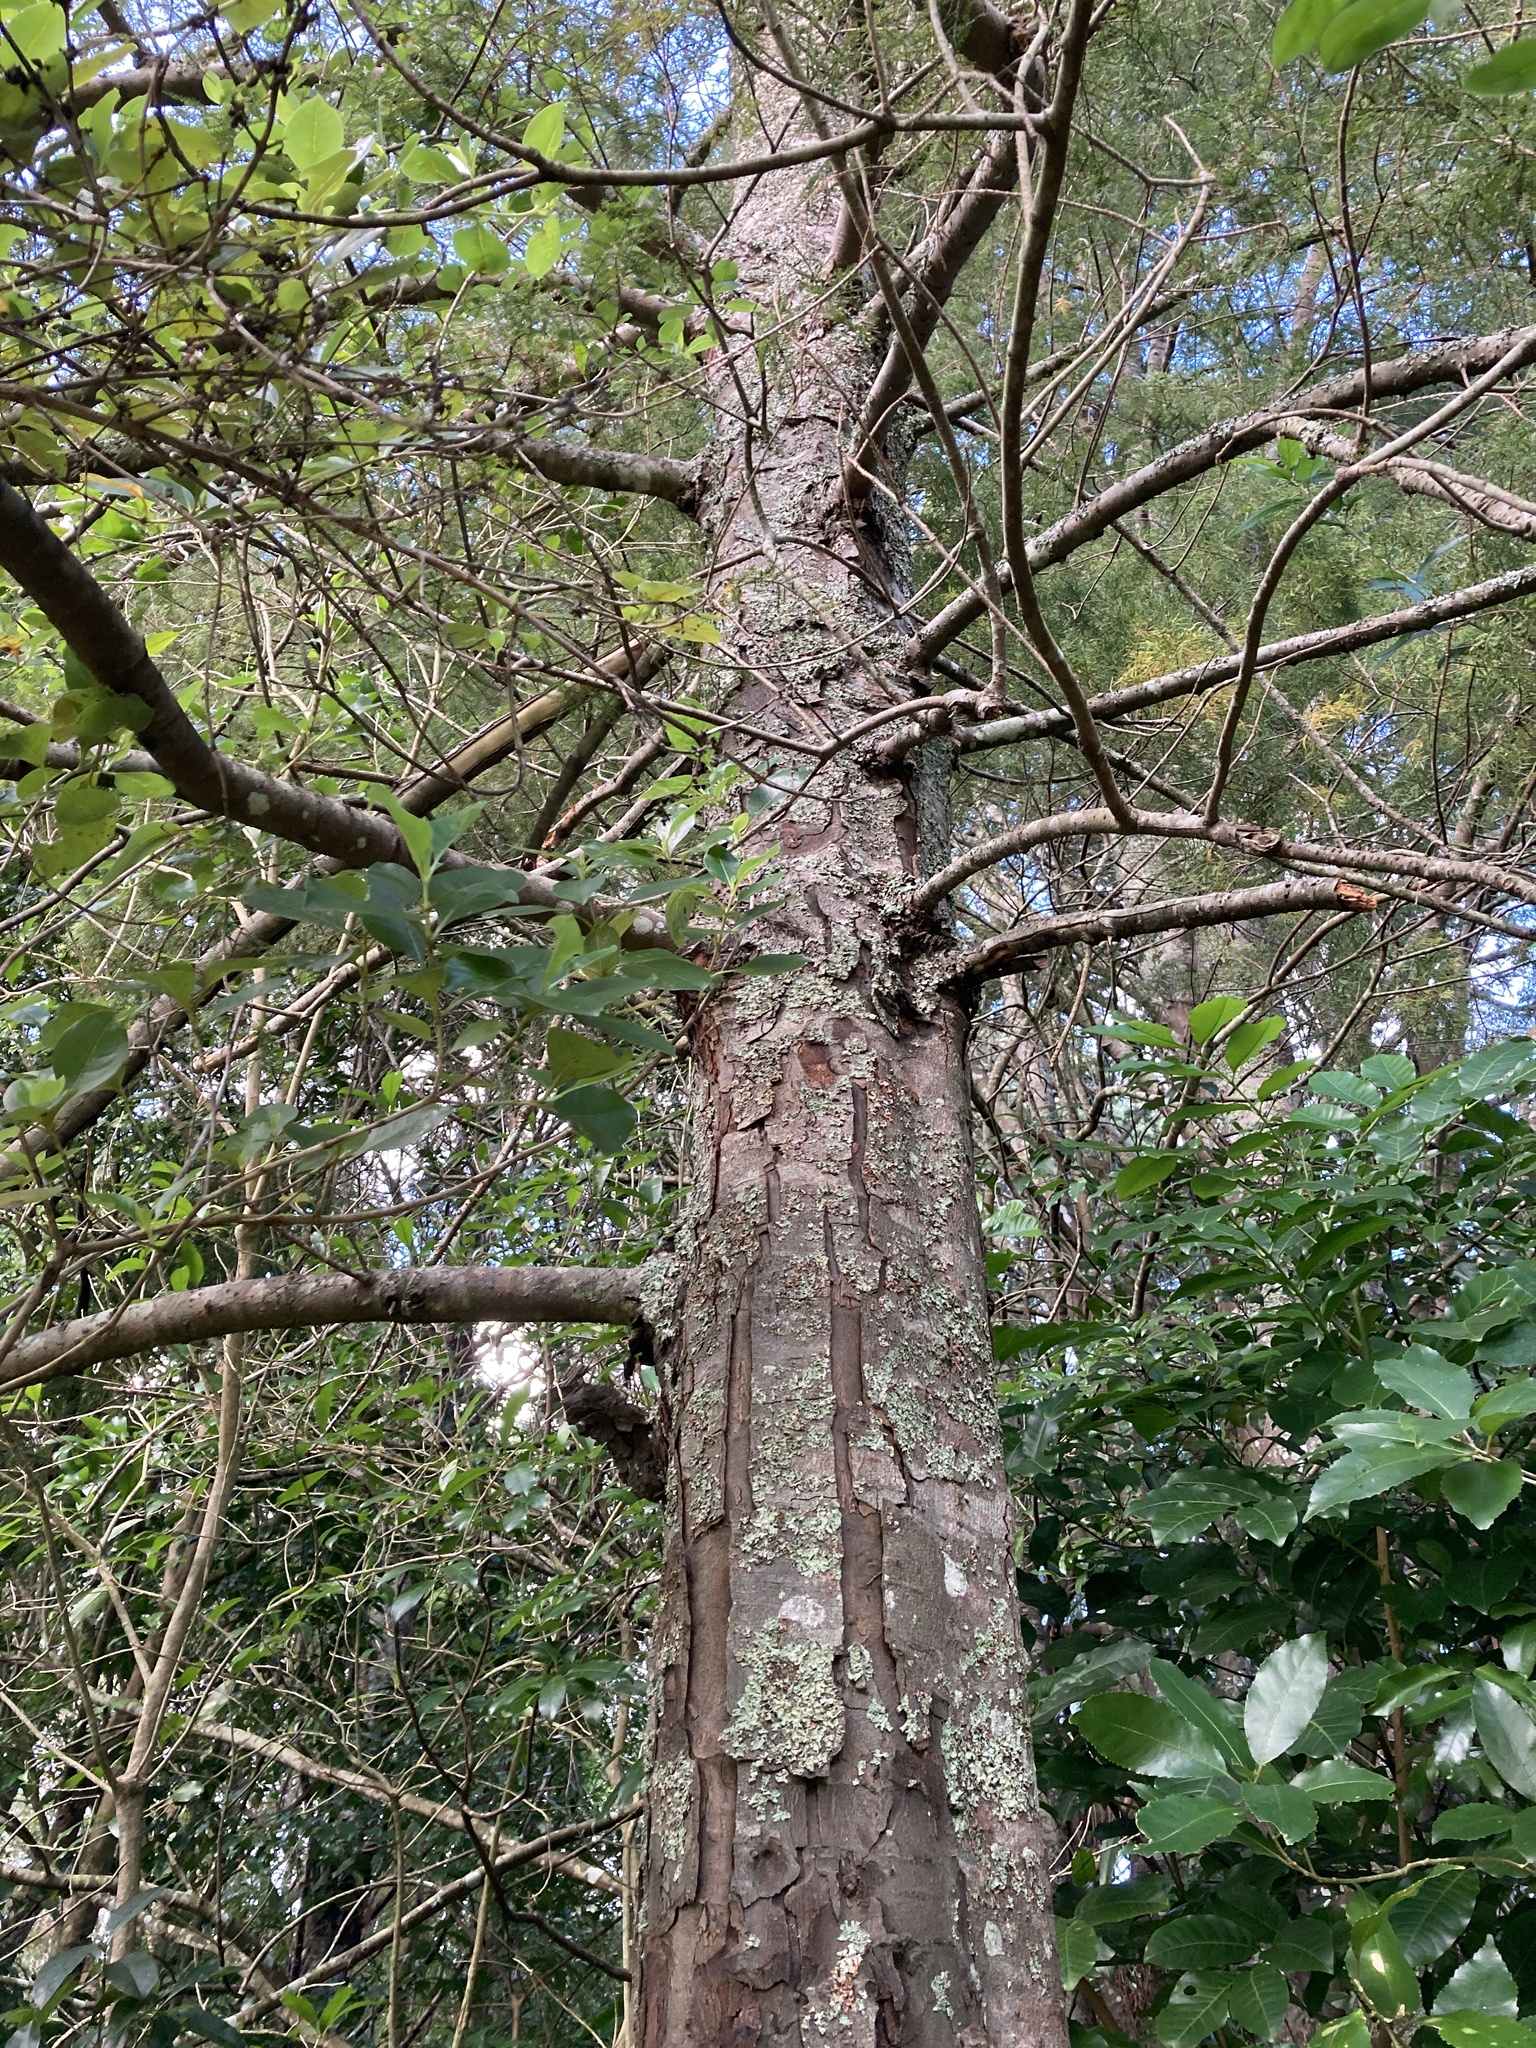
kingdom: Plantae
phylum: Tracheophyta
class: Pinopsida
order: Pinales
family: Podocarpaceae
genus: Dacrycarpus
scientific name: Dacrycarpus dacrydioides
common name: White pine
